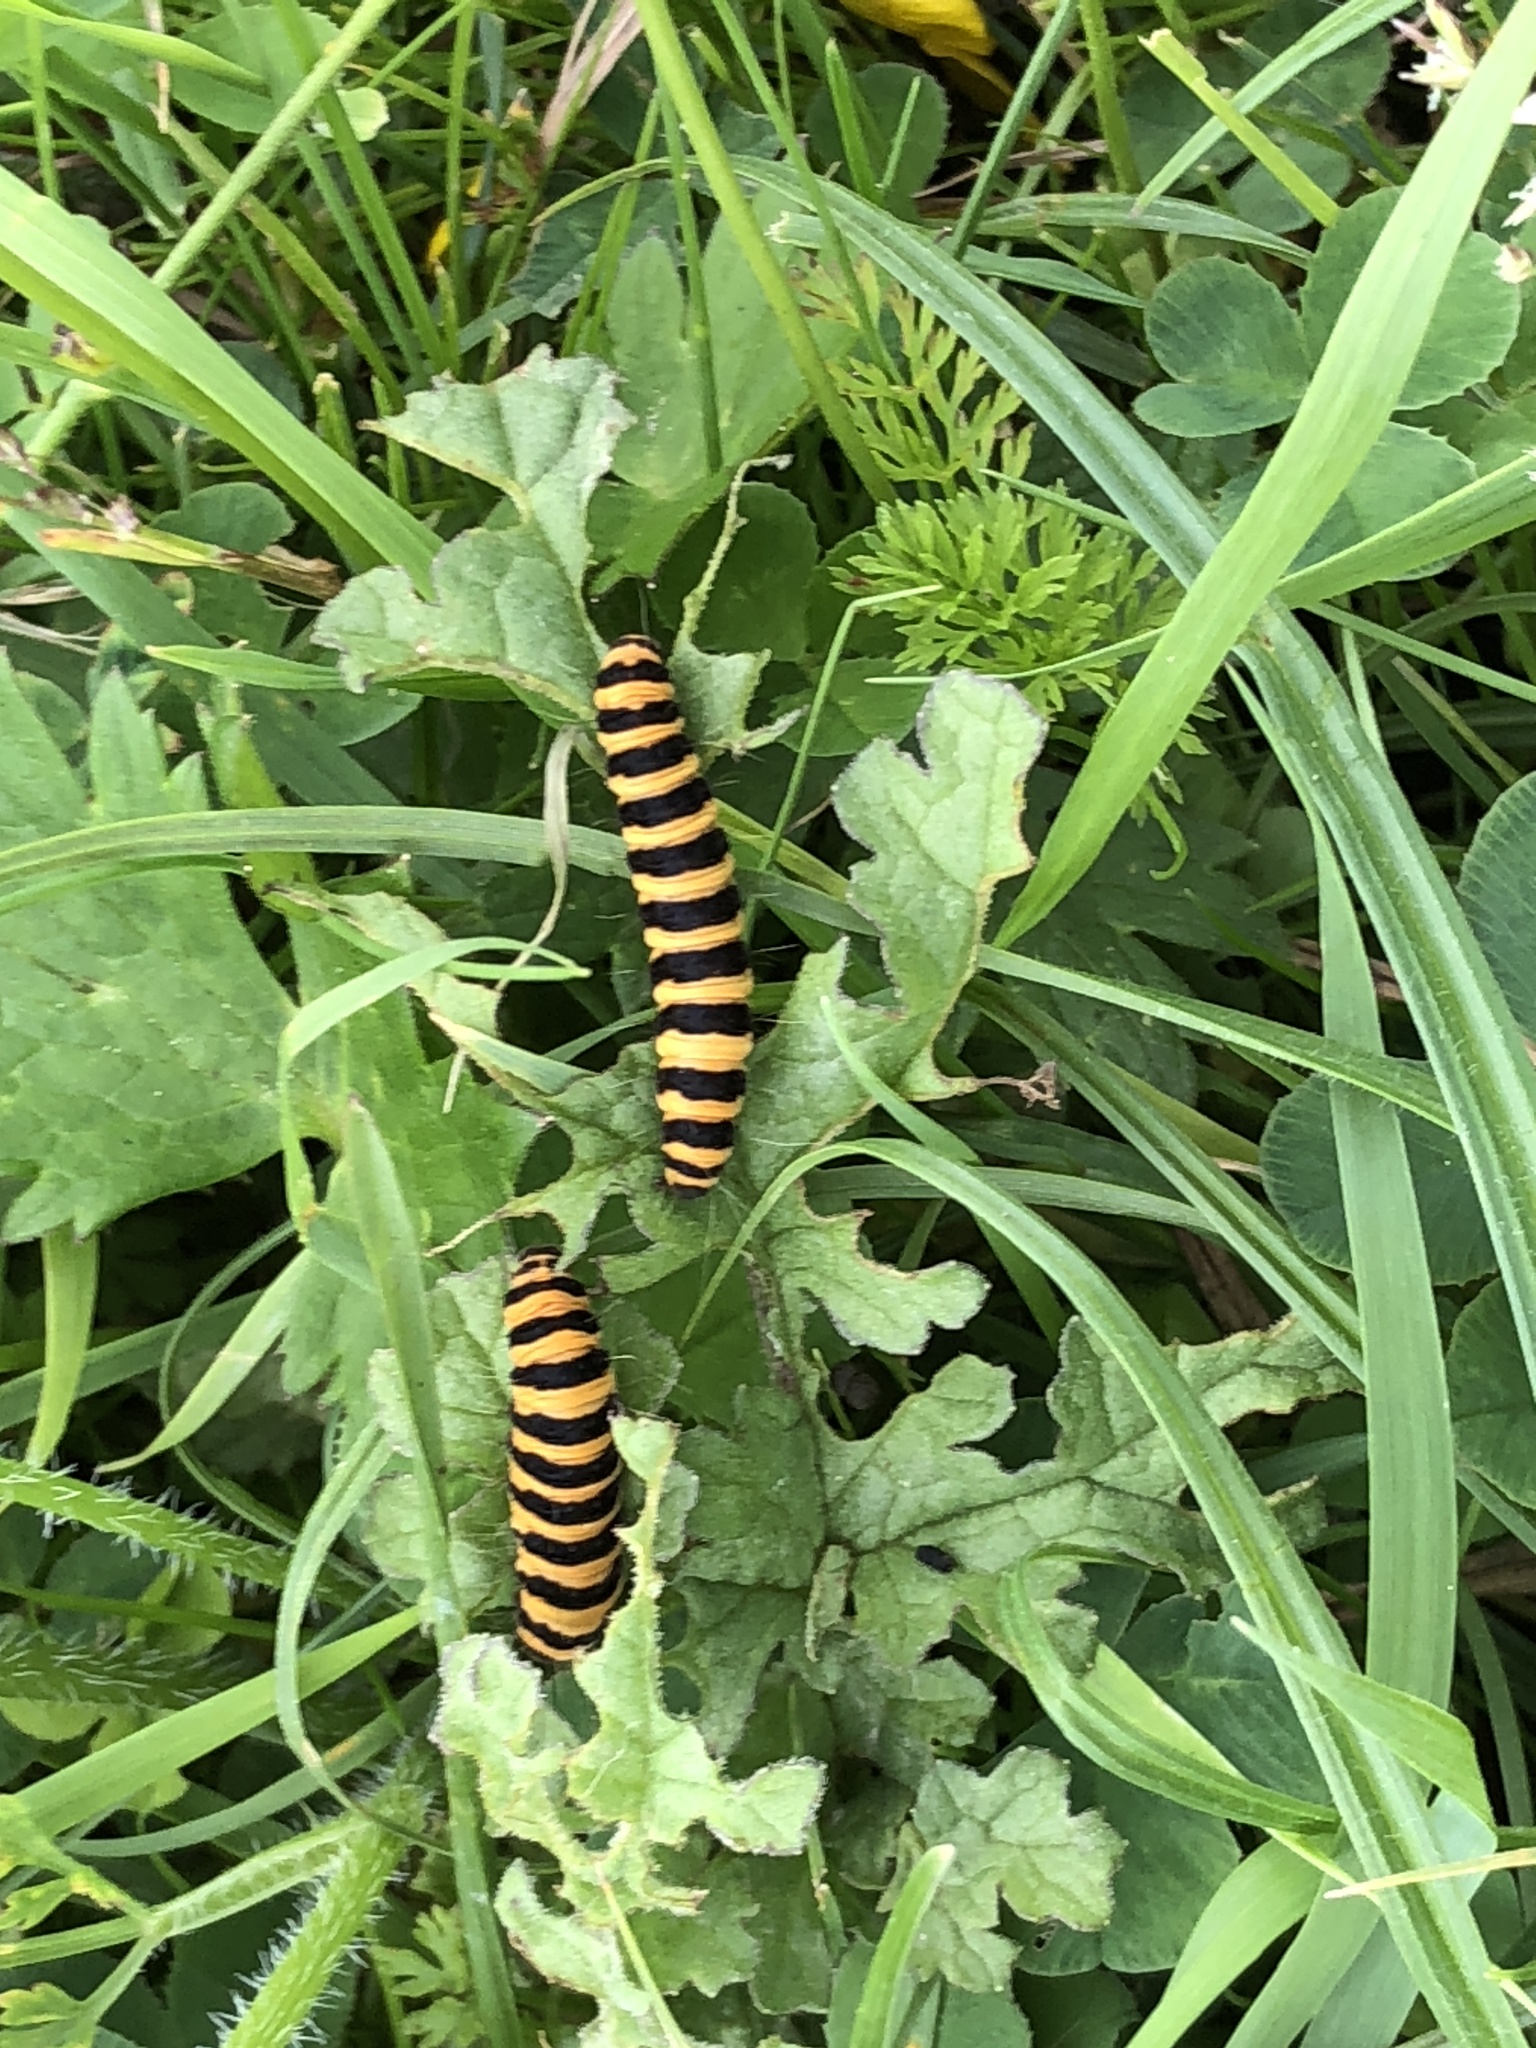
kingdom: Animalia
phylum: Arthropoda
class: Insecta
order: Lepidoptera
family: Erebidae
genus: Tyria
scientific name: Tyria jacobaeae
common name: Cinnabar
